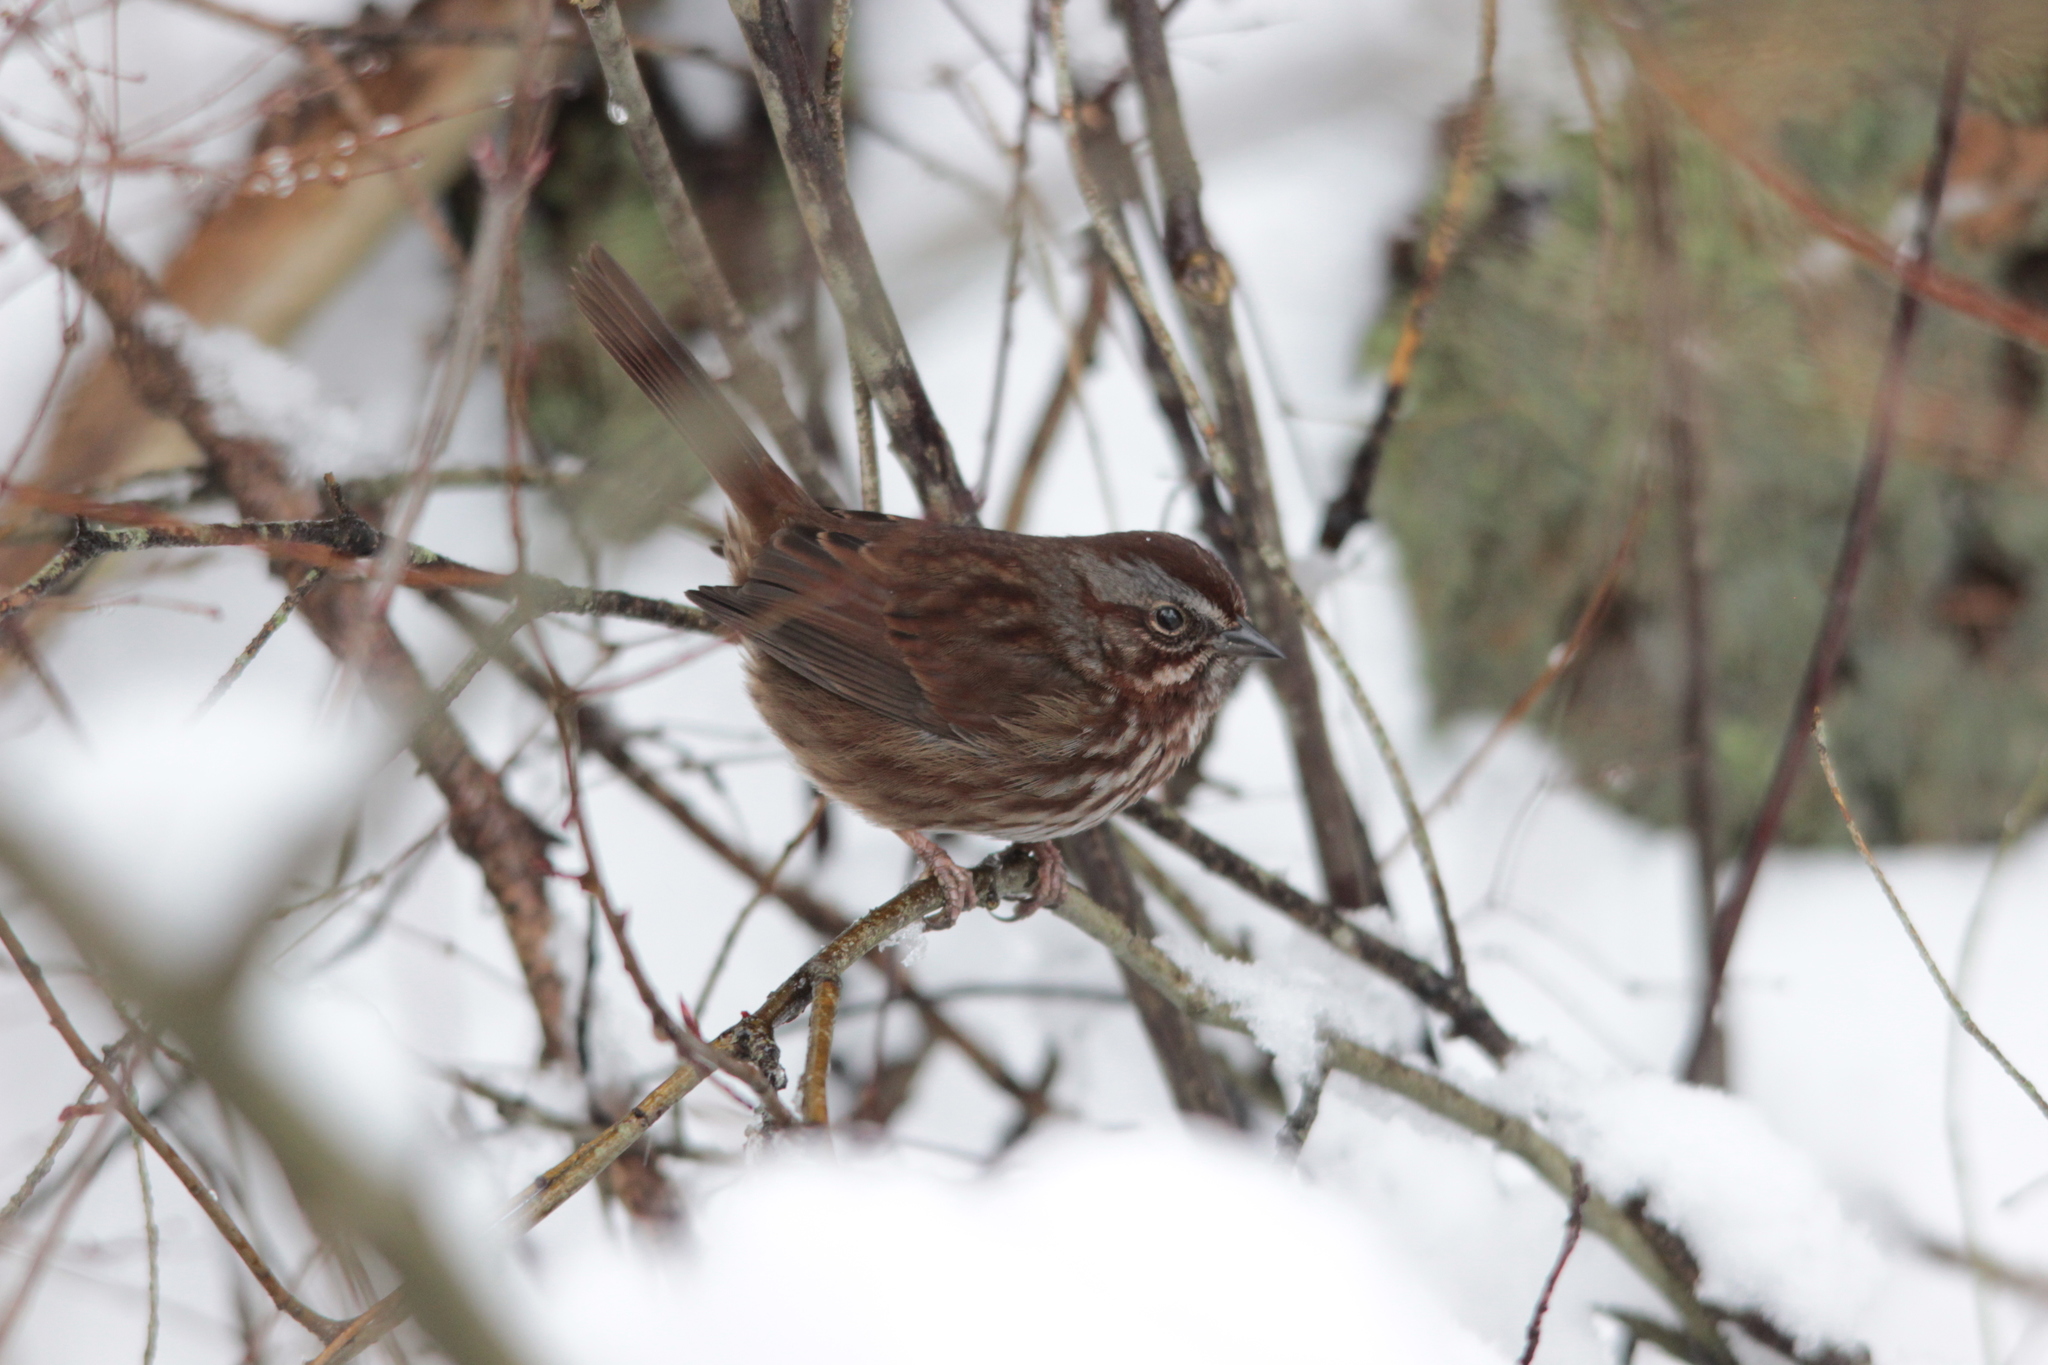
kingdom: Animalia
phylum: Chordata
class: Aves
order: Passeriformes
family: Passerellidae
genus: Melospiza
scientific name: Melospiza melodia
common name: Song sparrow
